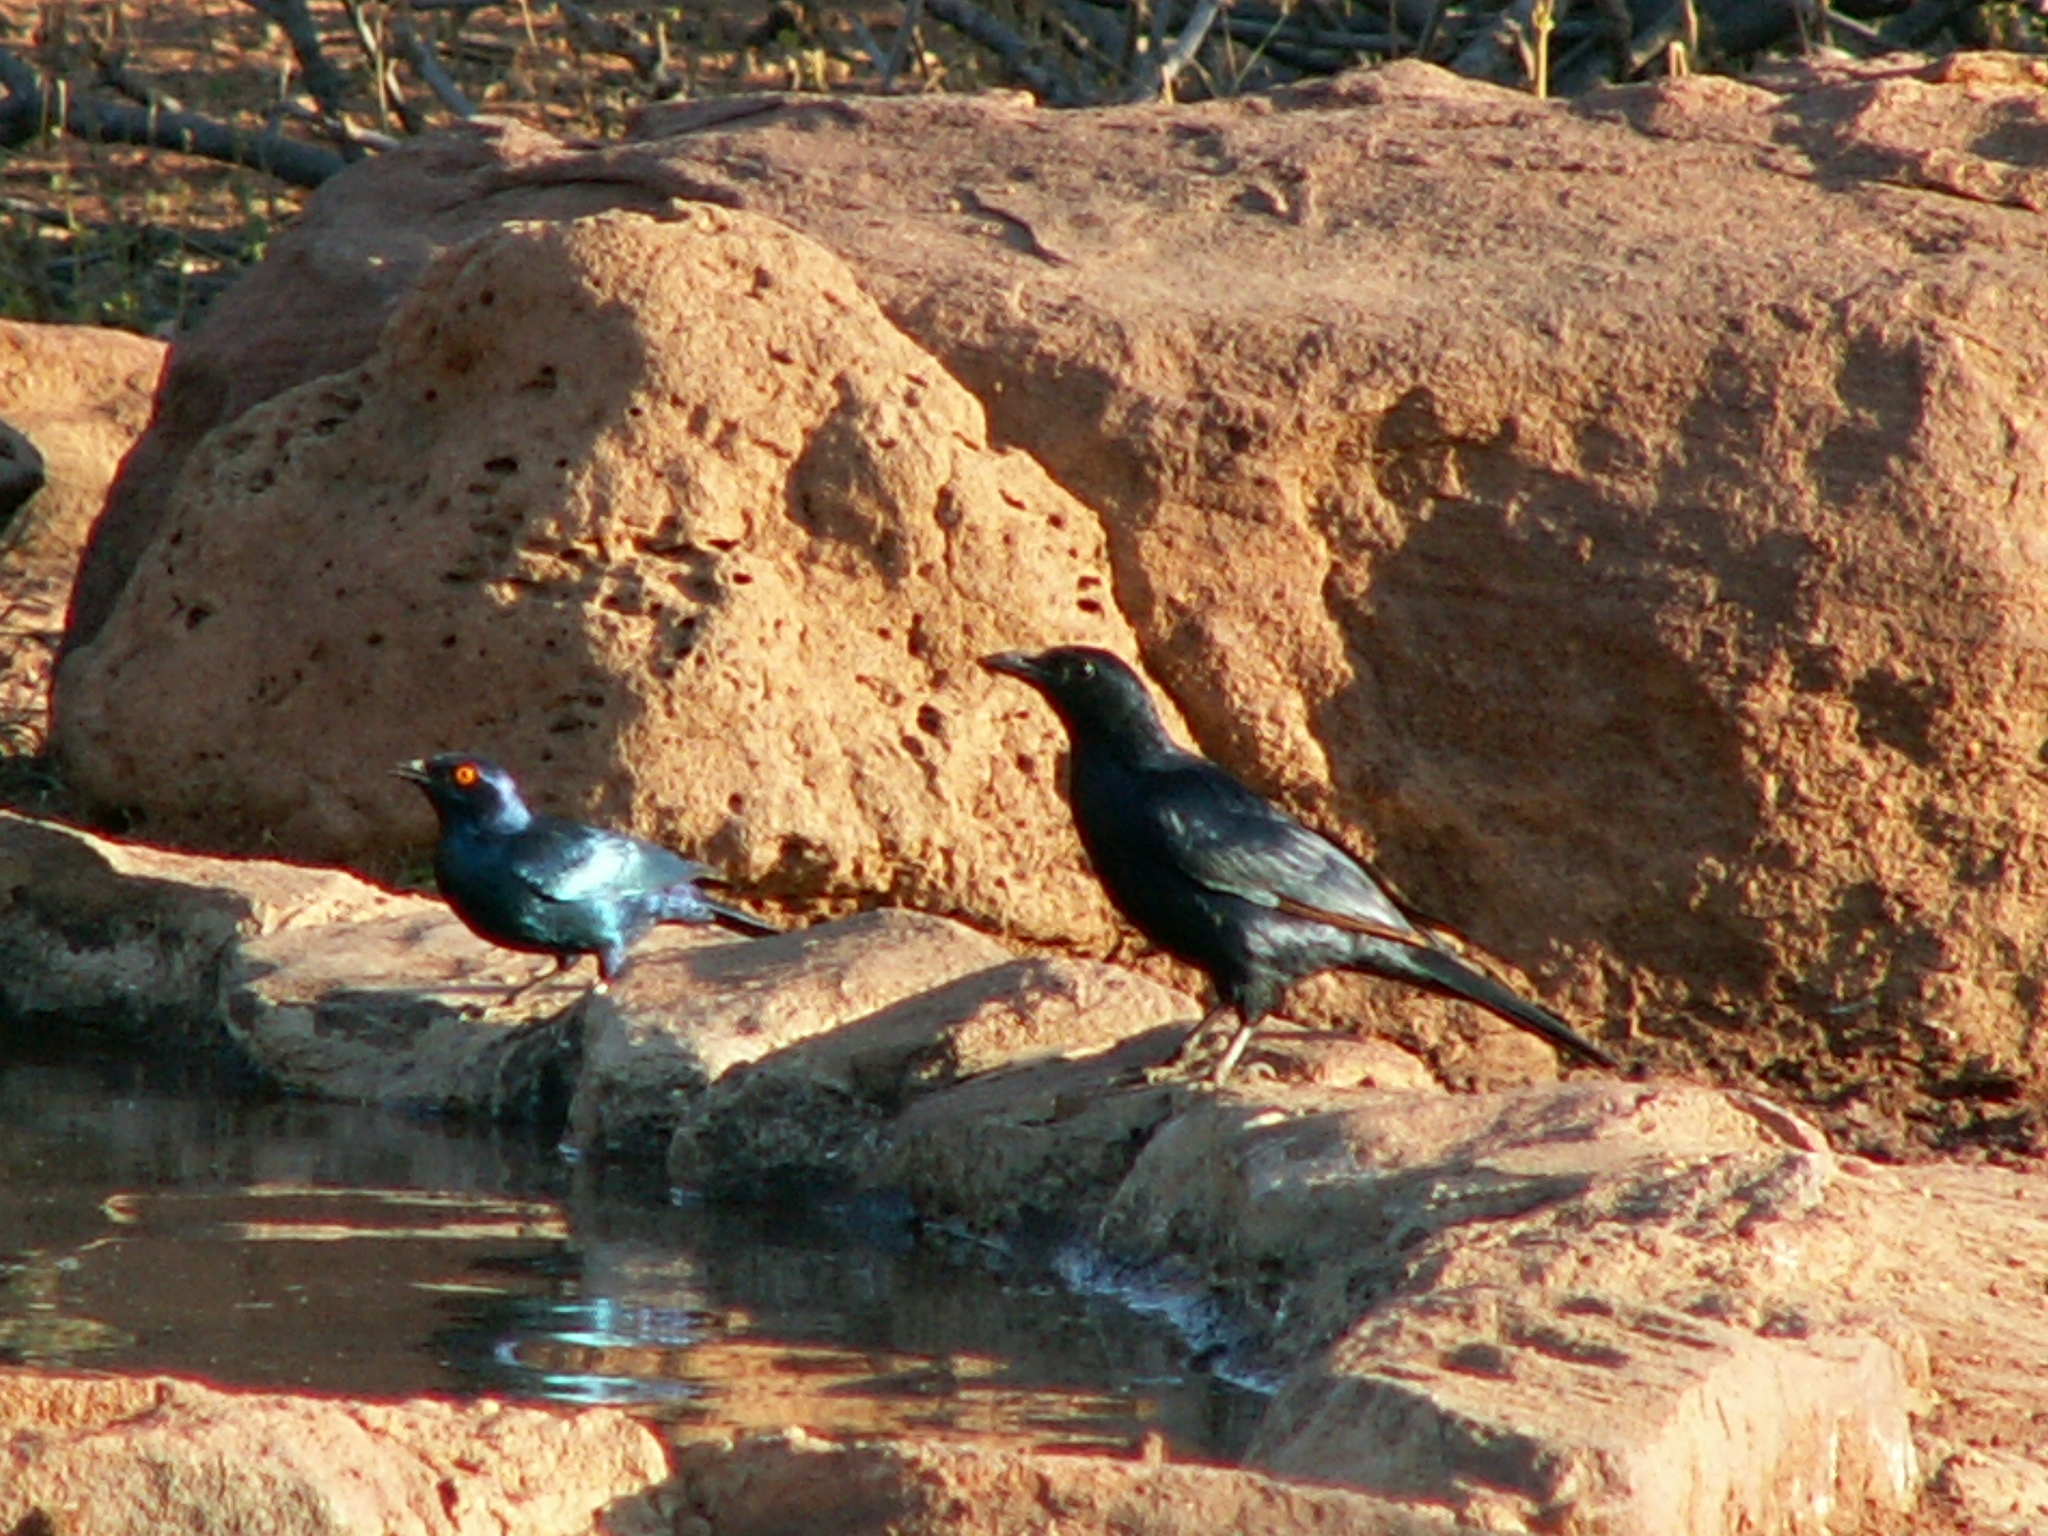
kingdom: Animalia
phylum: Chordata
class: Aves
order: Passeriformes
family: Sturnidae
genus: Onychognathus
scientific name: Onychognathus morio
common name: Red-winged starling
